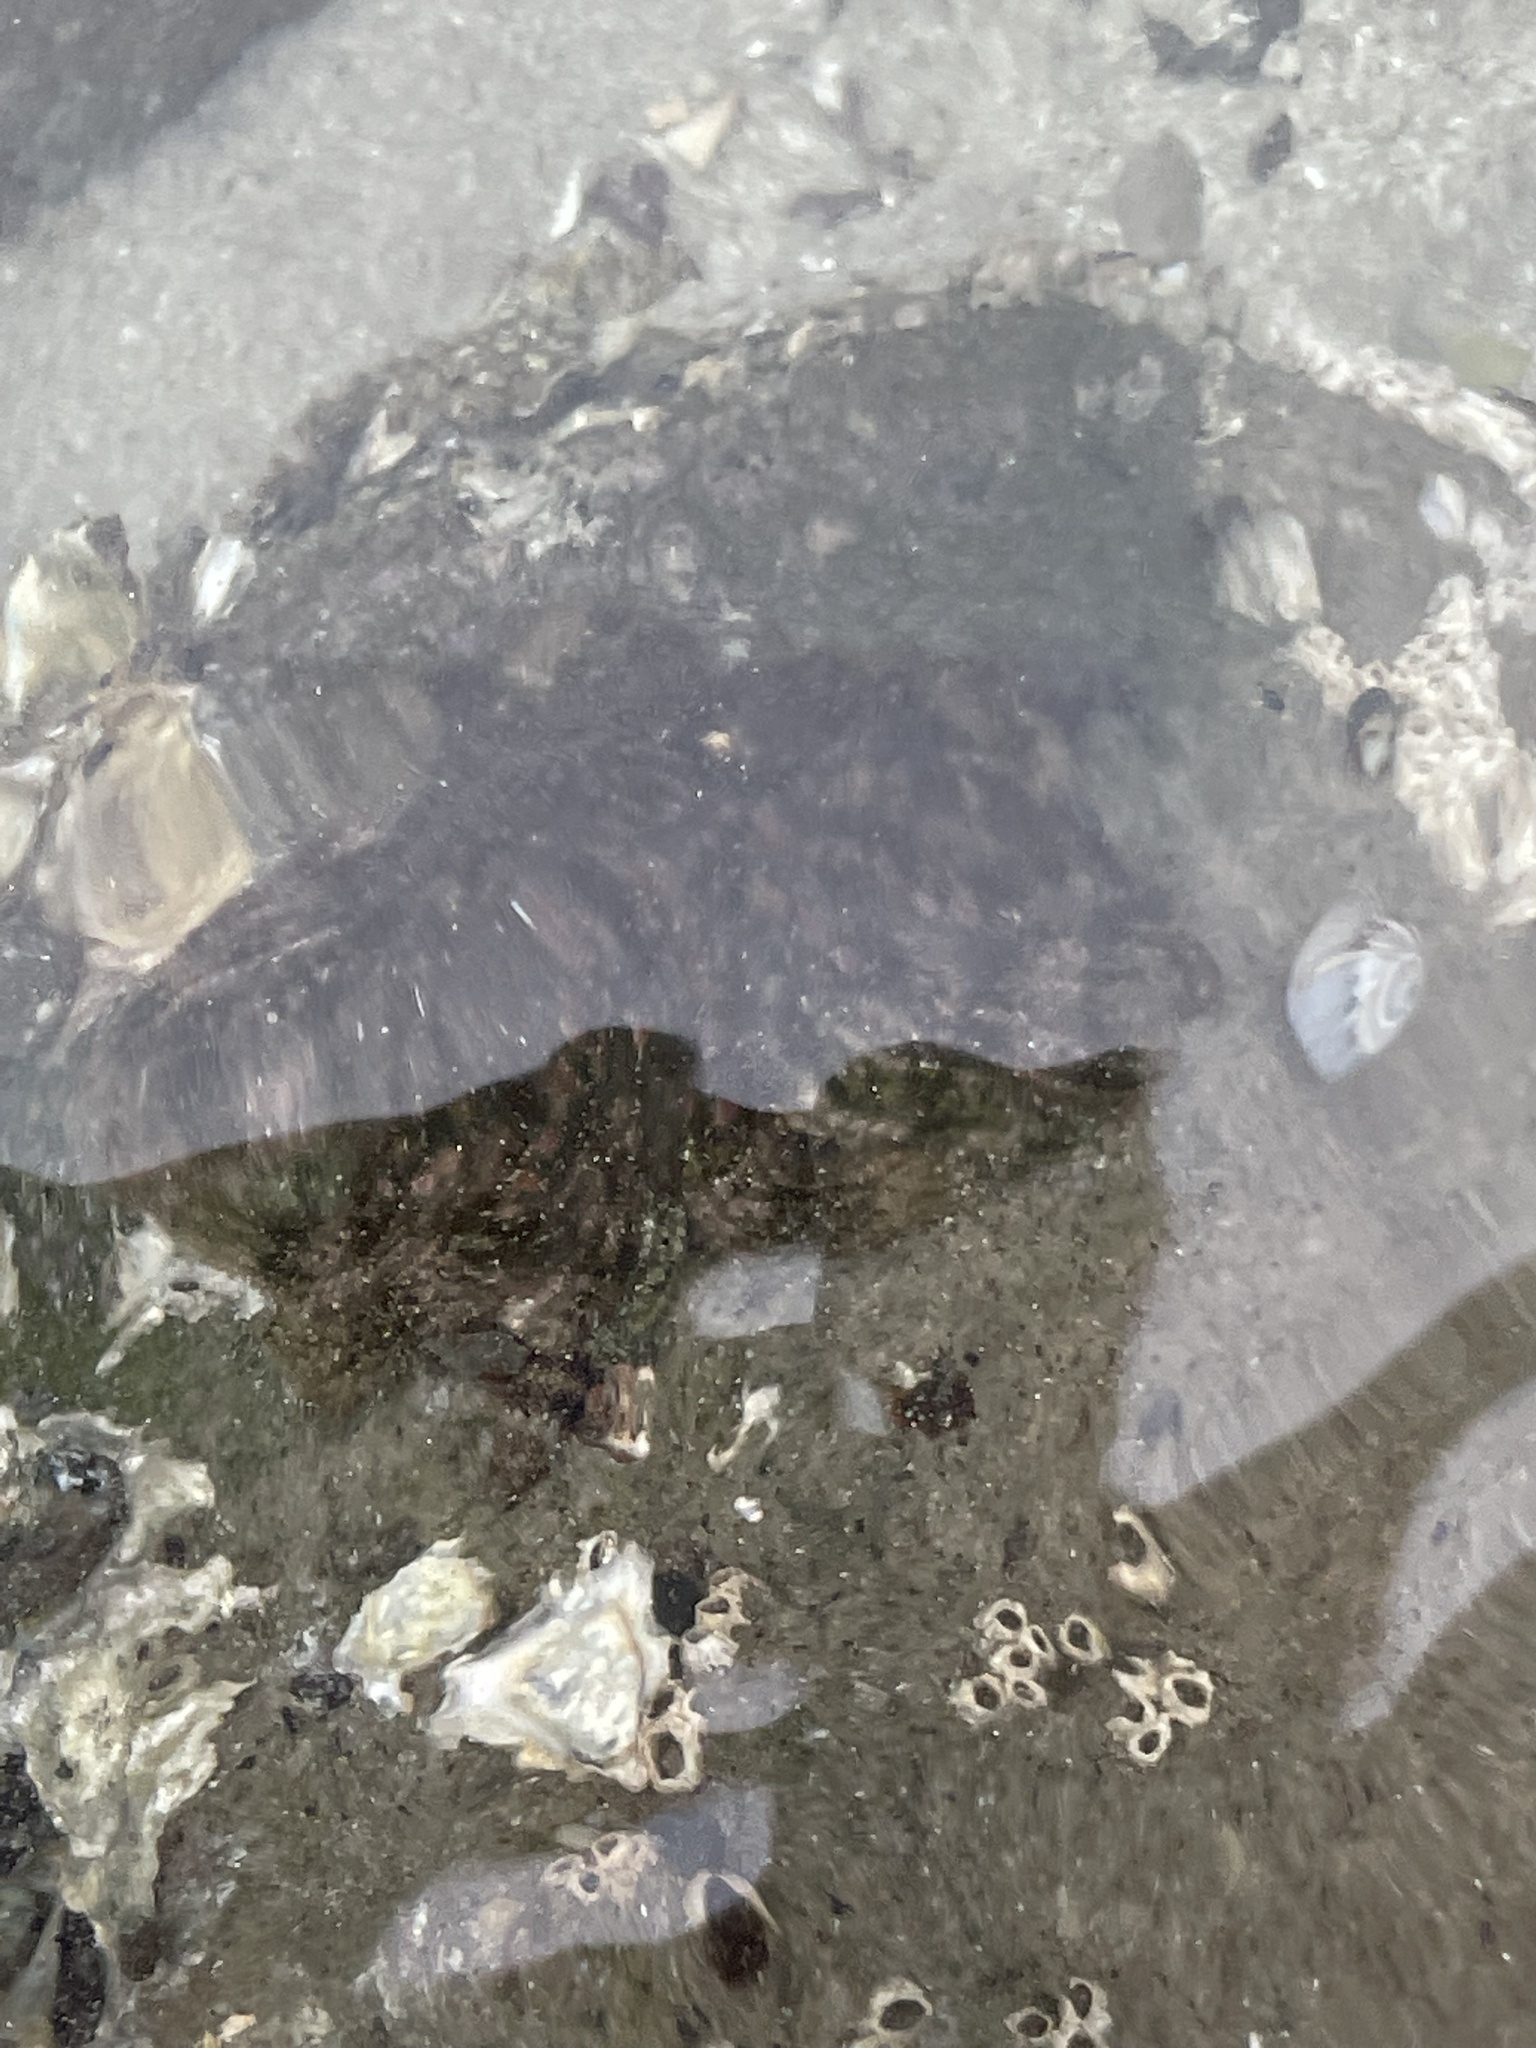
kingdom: Animalia
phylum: Echinodermata
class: Asteroidea
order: Forcipulatida
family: Heliasteridae
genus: Heliaster
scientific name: Heliaster kubiniji
